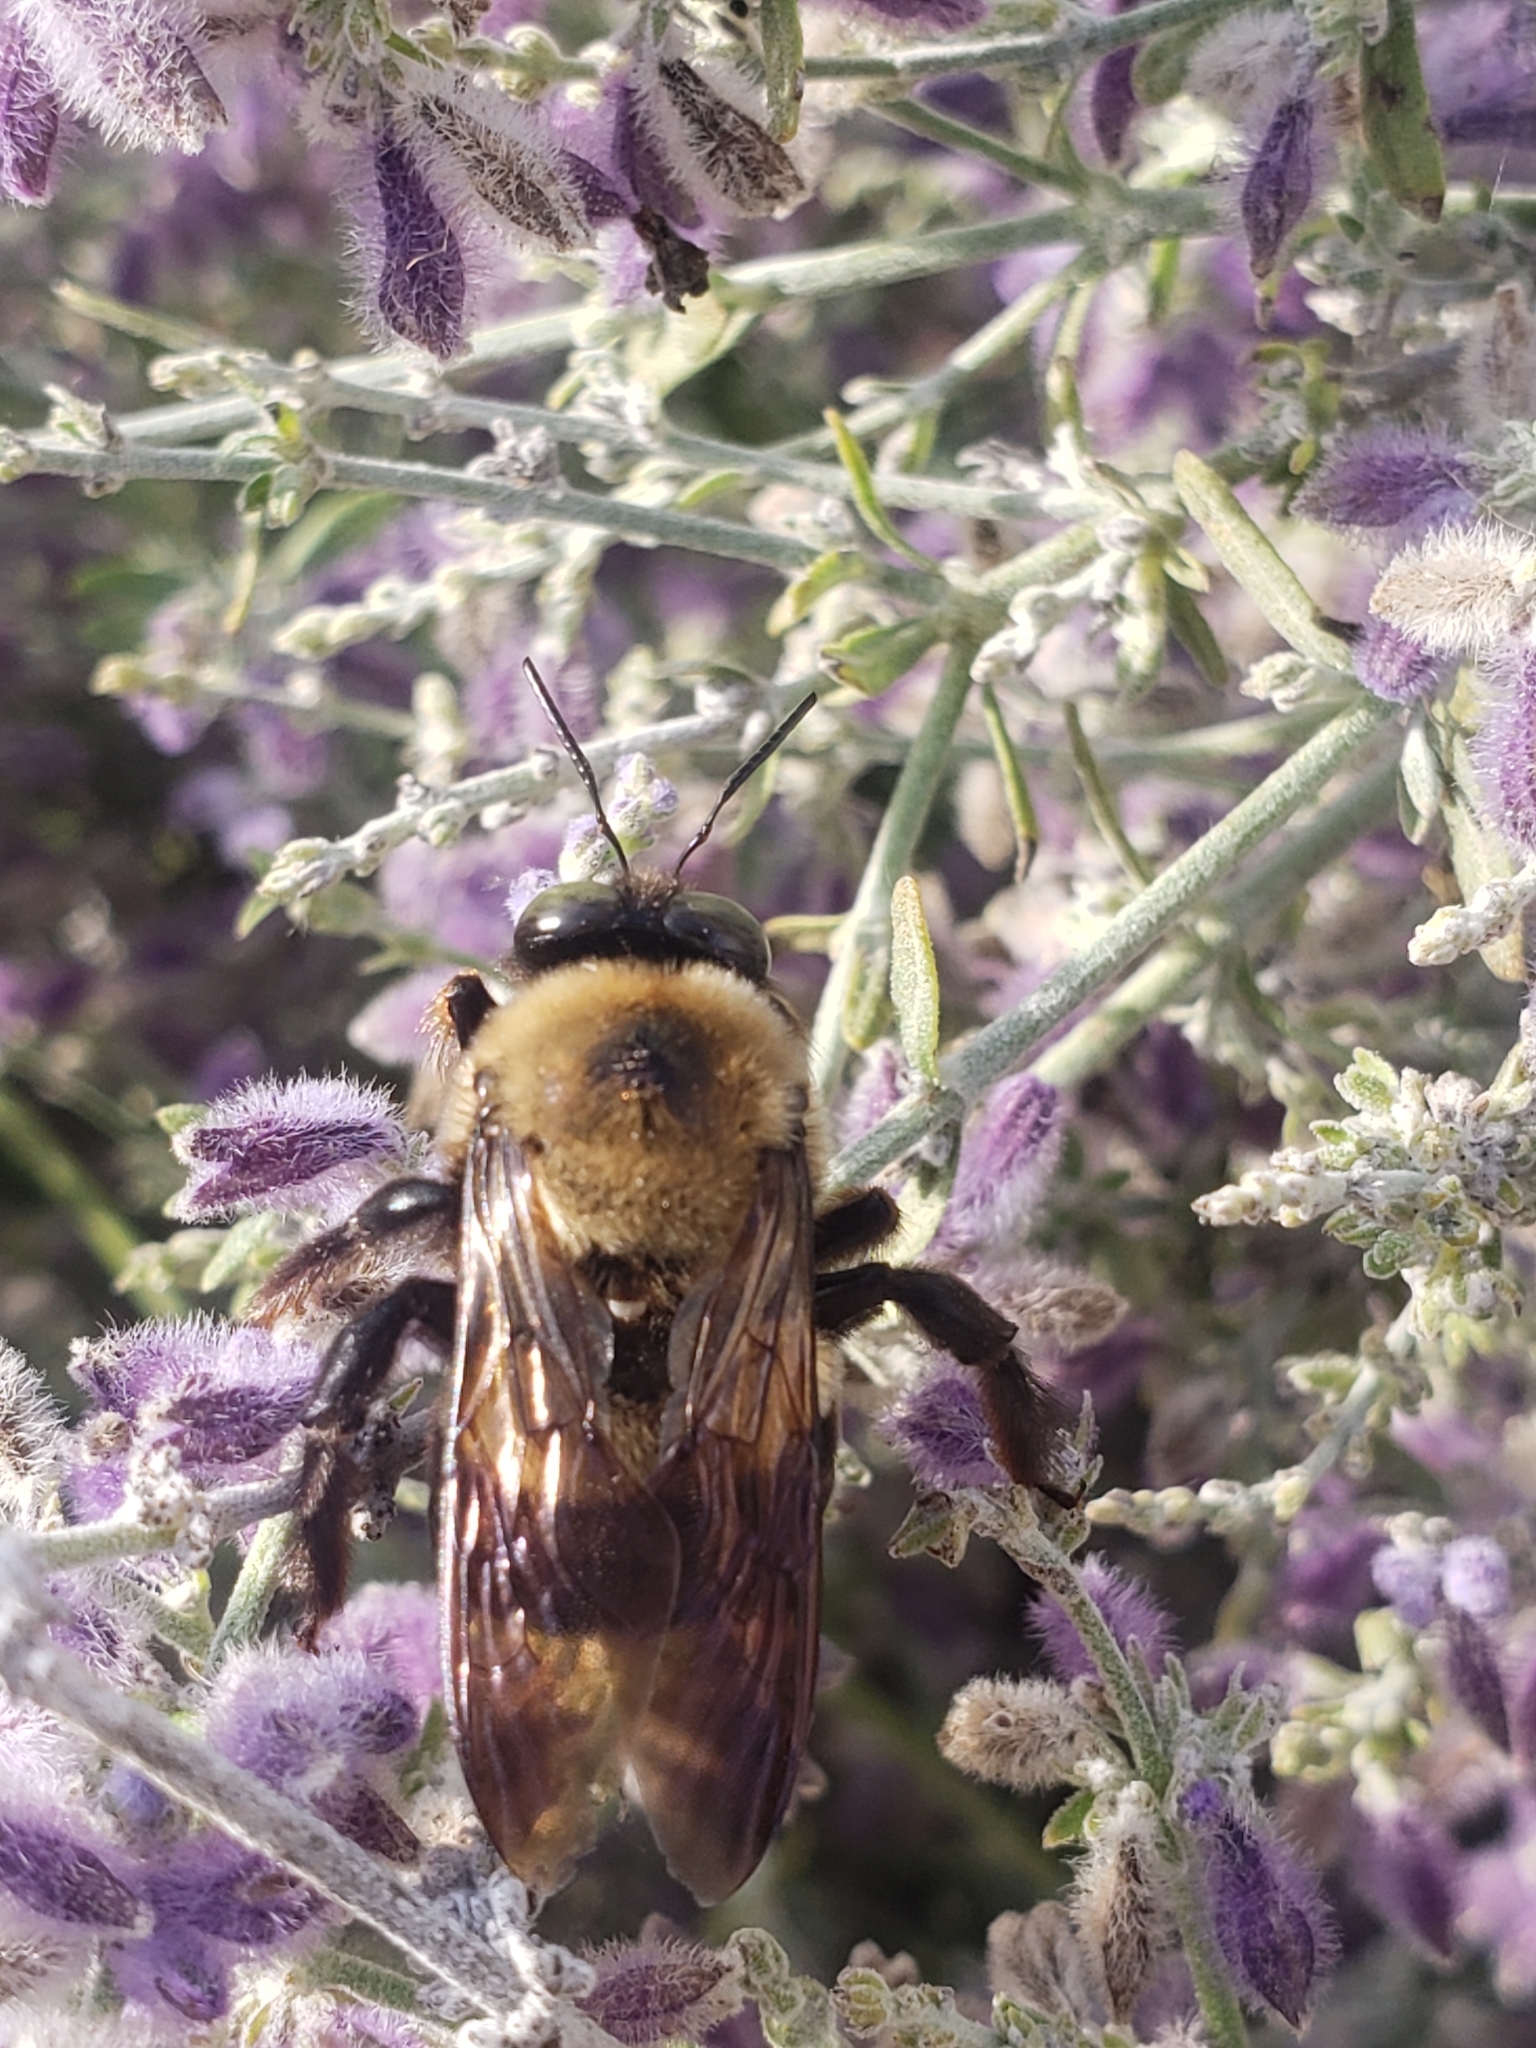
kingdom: Animalia
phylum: Arthropoda
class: Insecta
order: Hymenoptera
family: Apidae
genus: Xylocopa
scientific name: Xylocopa virginica
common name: Carpenter bee
